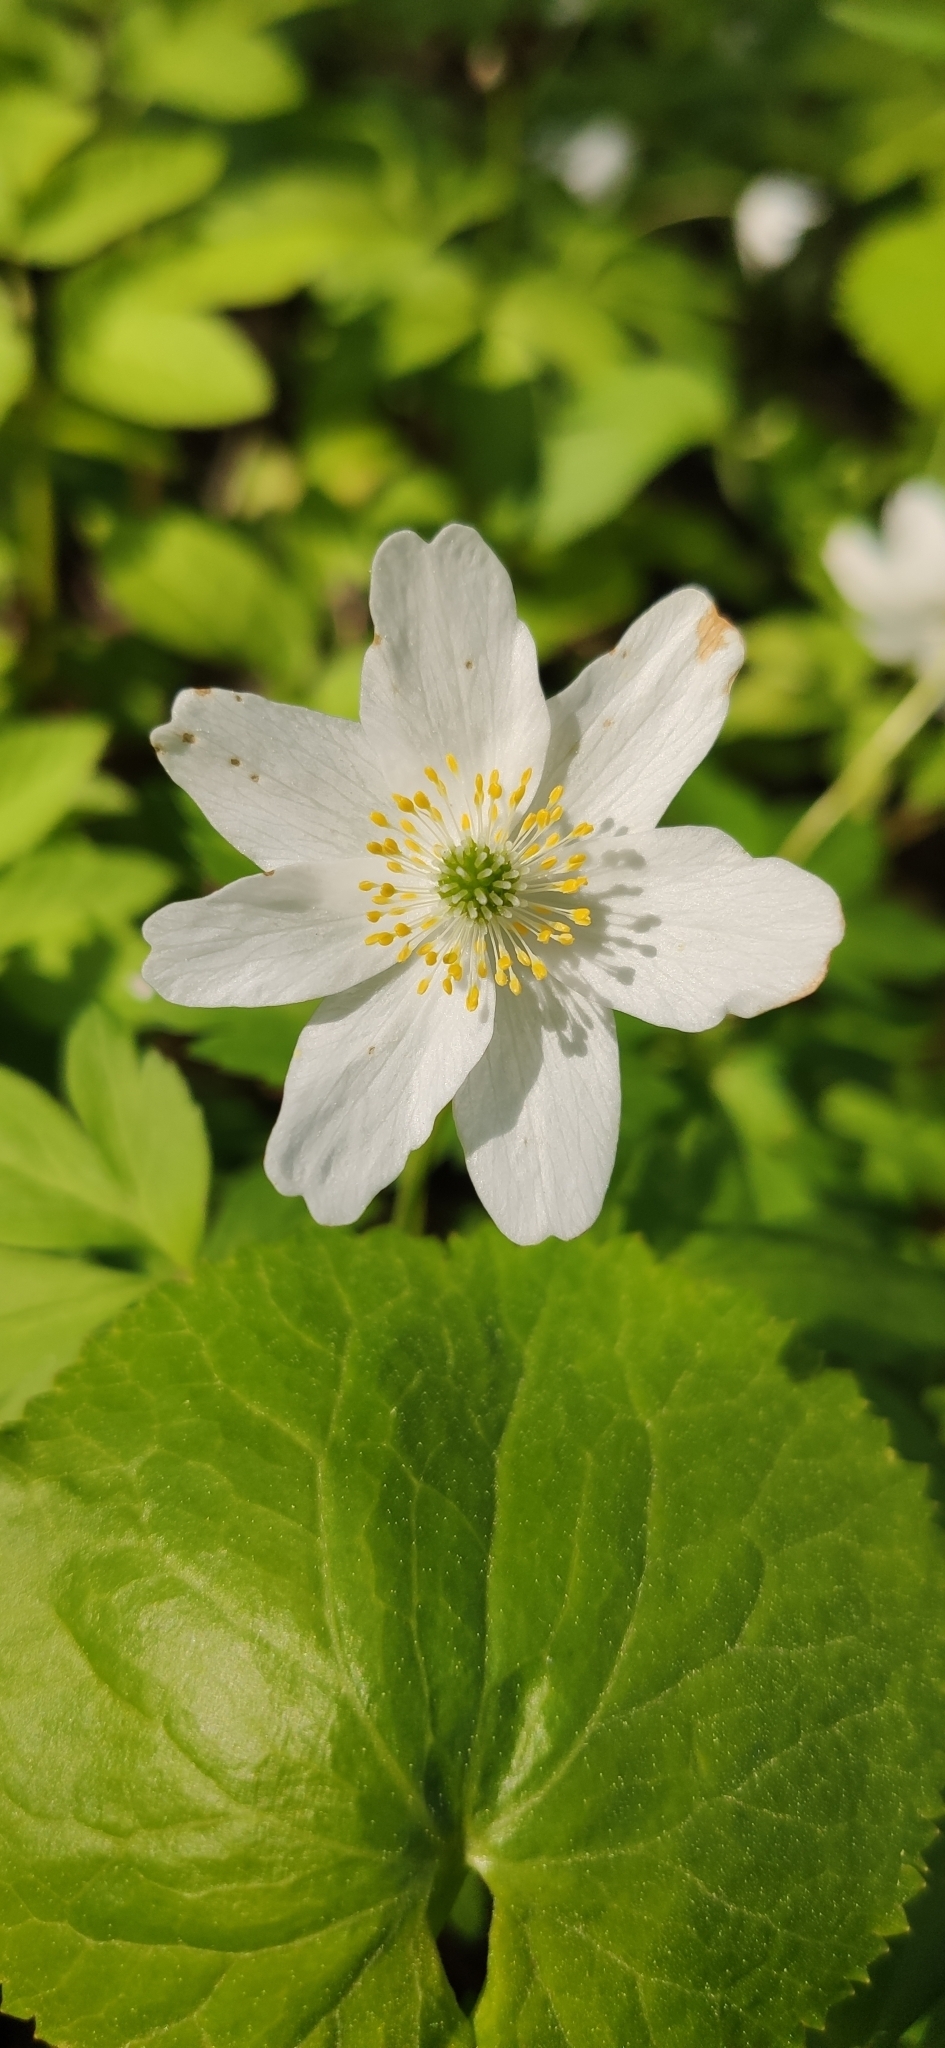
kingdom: Plantae
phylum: Tracheophyta
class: Magnoliopsida
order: Ranunculales
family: Ranunculaceae
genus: Anemone
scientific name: Anemone nemorosa
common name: Wood anemone
